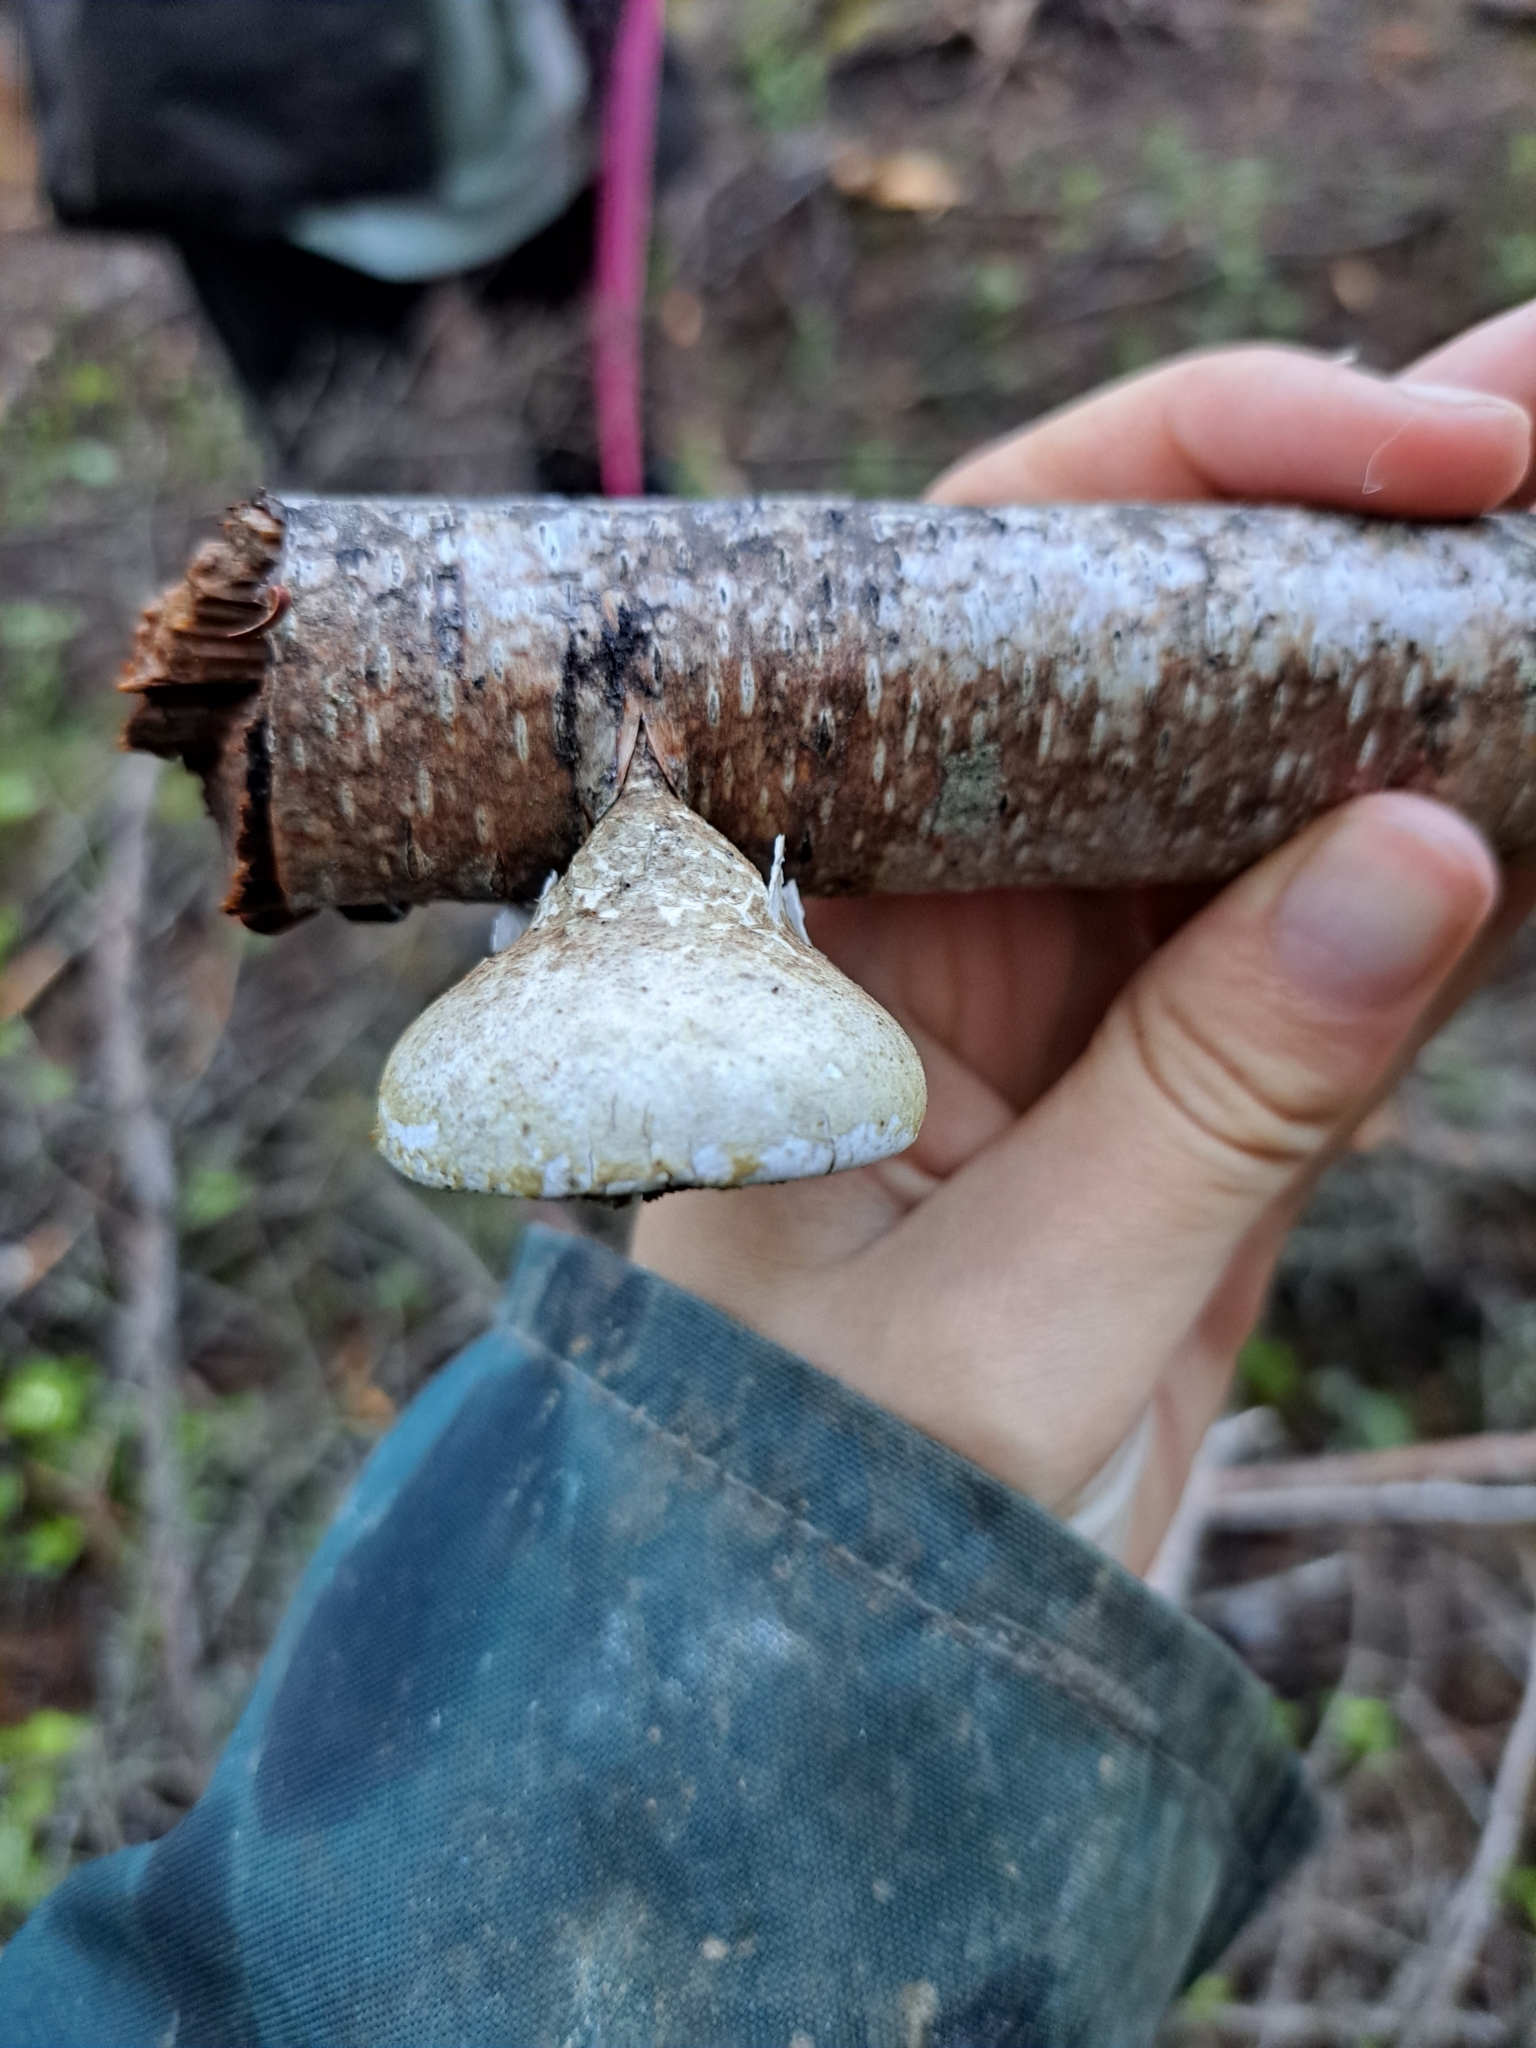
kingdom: Fungi
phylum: Basidiomycota
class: Agaricomycetes
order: Polyporales
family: Fomitopsidaceae
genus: Fomitopsis
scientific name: Fomitopsis betulina
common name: Birch polypore
